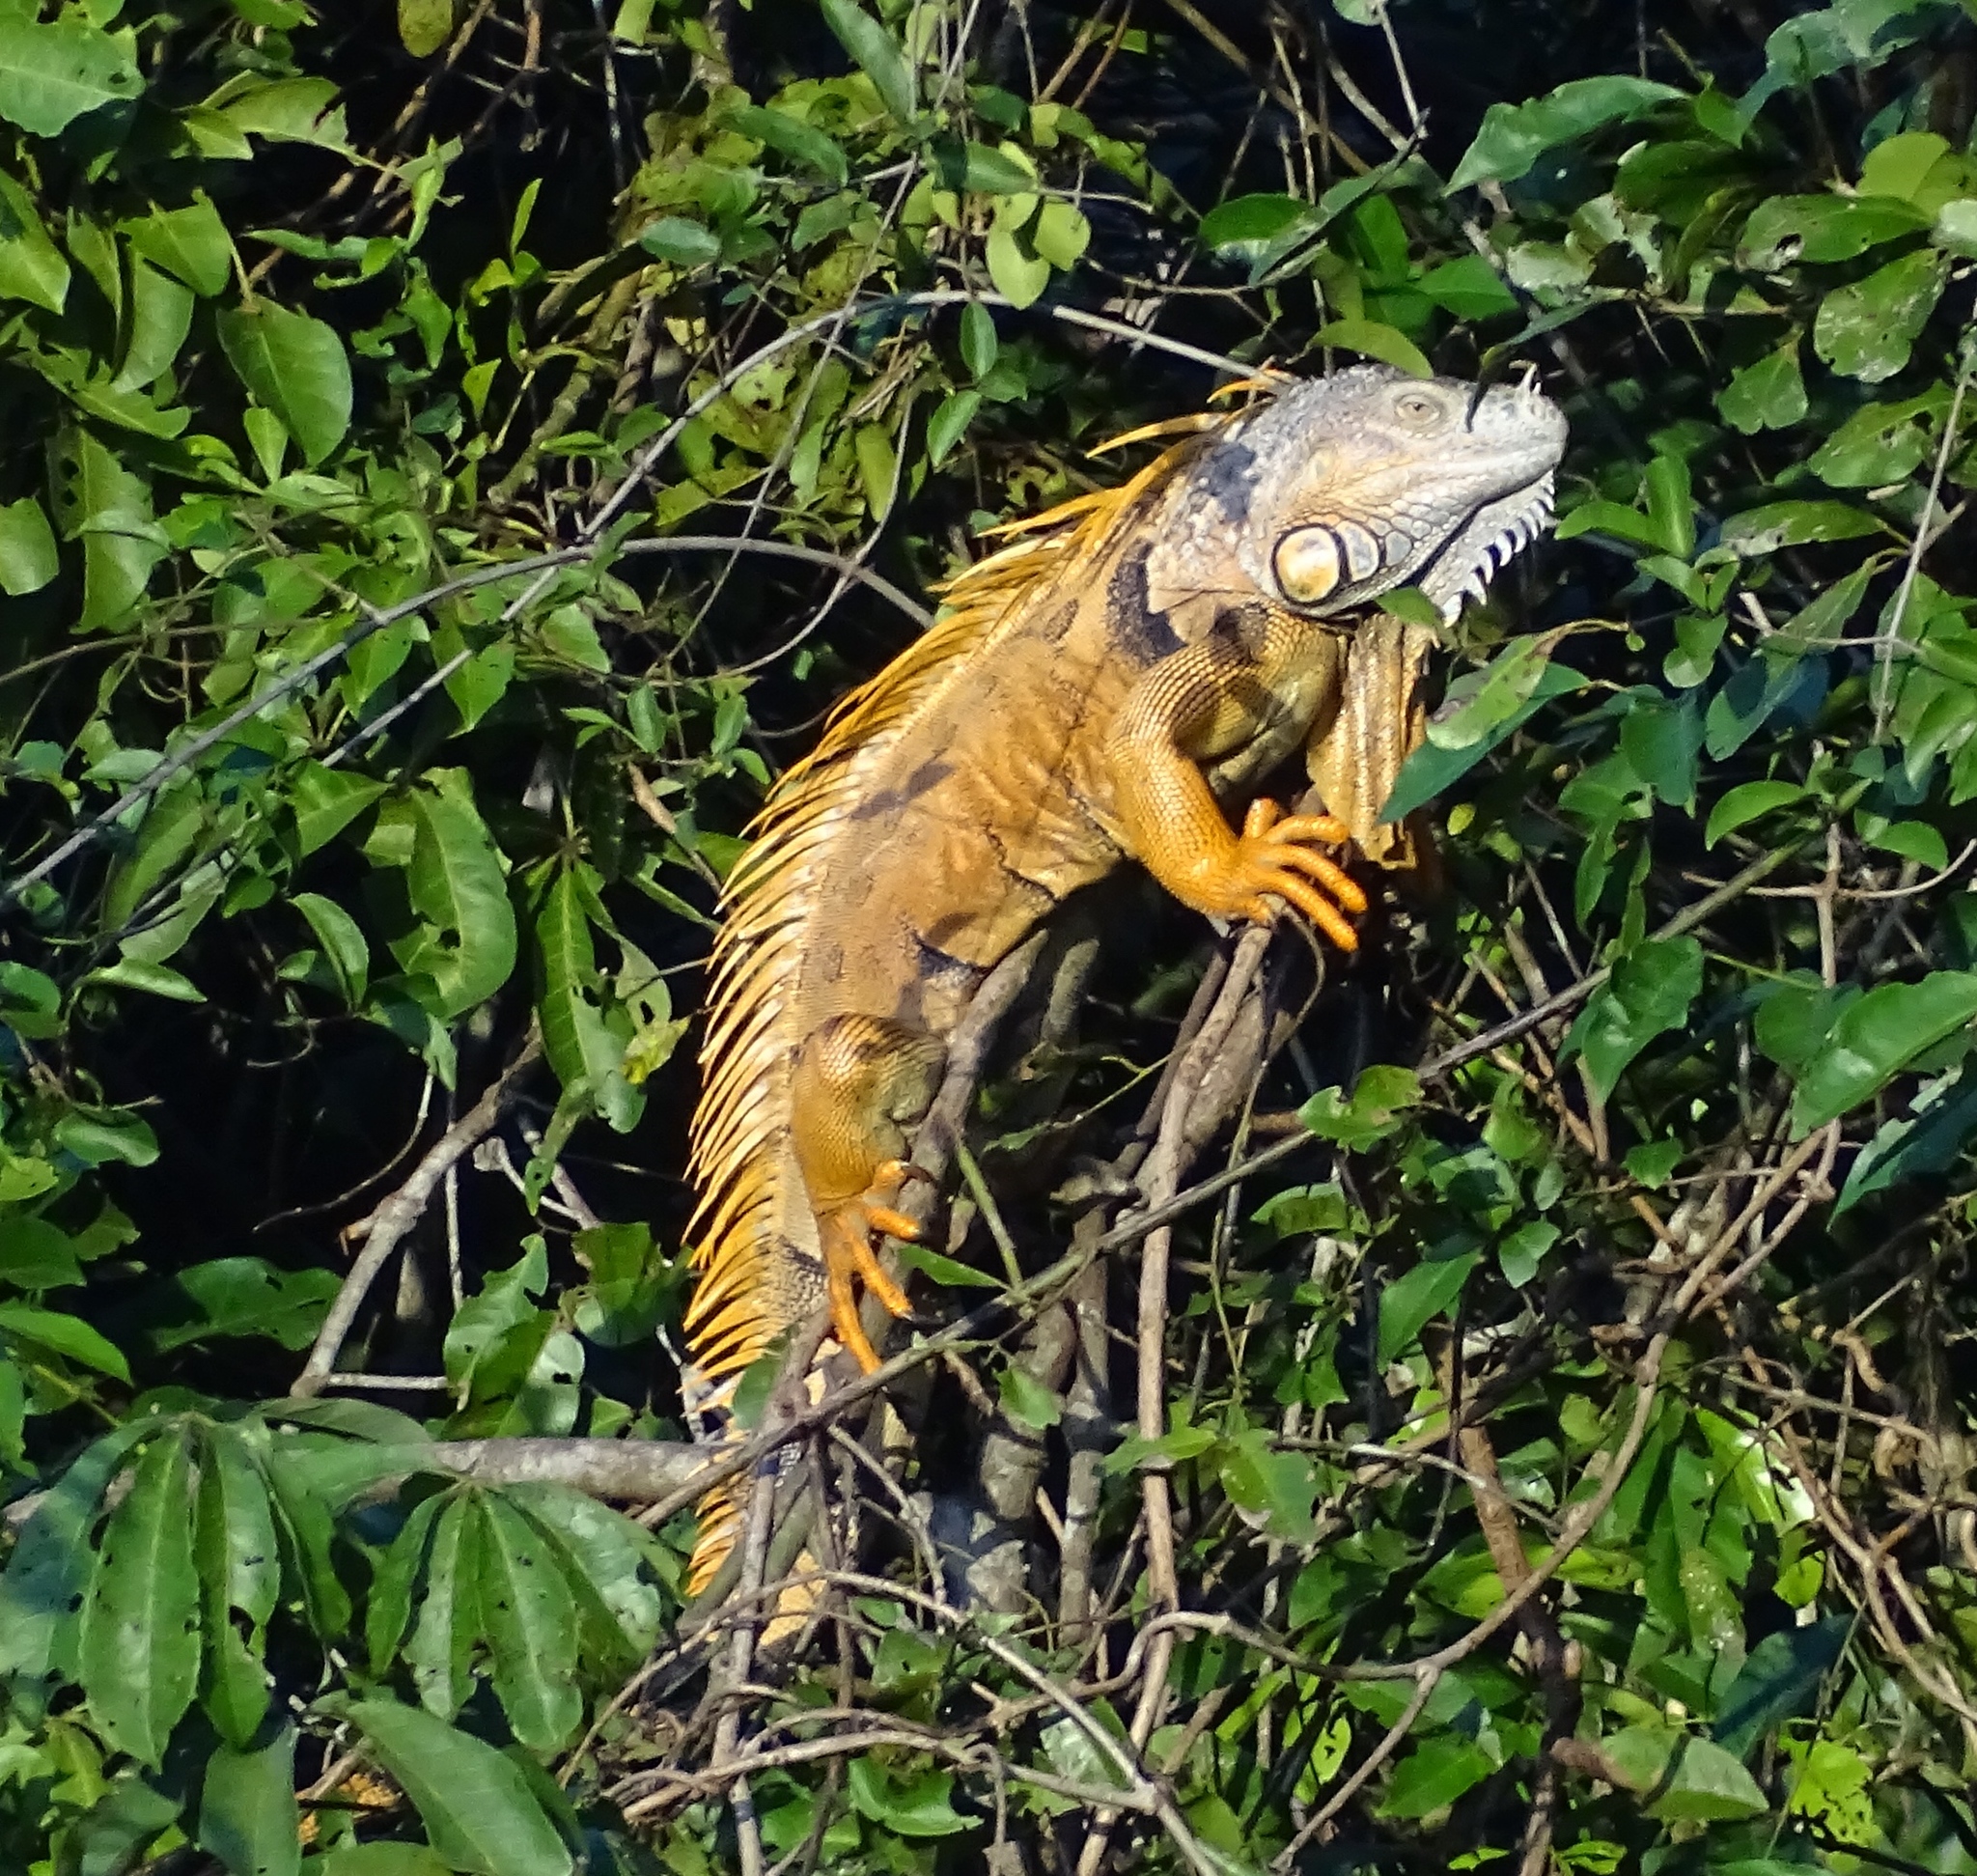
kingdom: Animalia
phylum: Chordata
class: Squamata
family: Iguanidae
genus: Iguana
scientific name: Iguana iguana
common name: Green iguana
